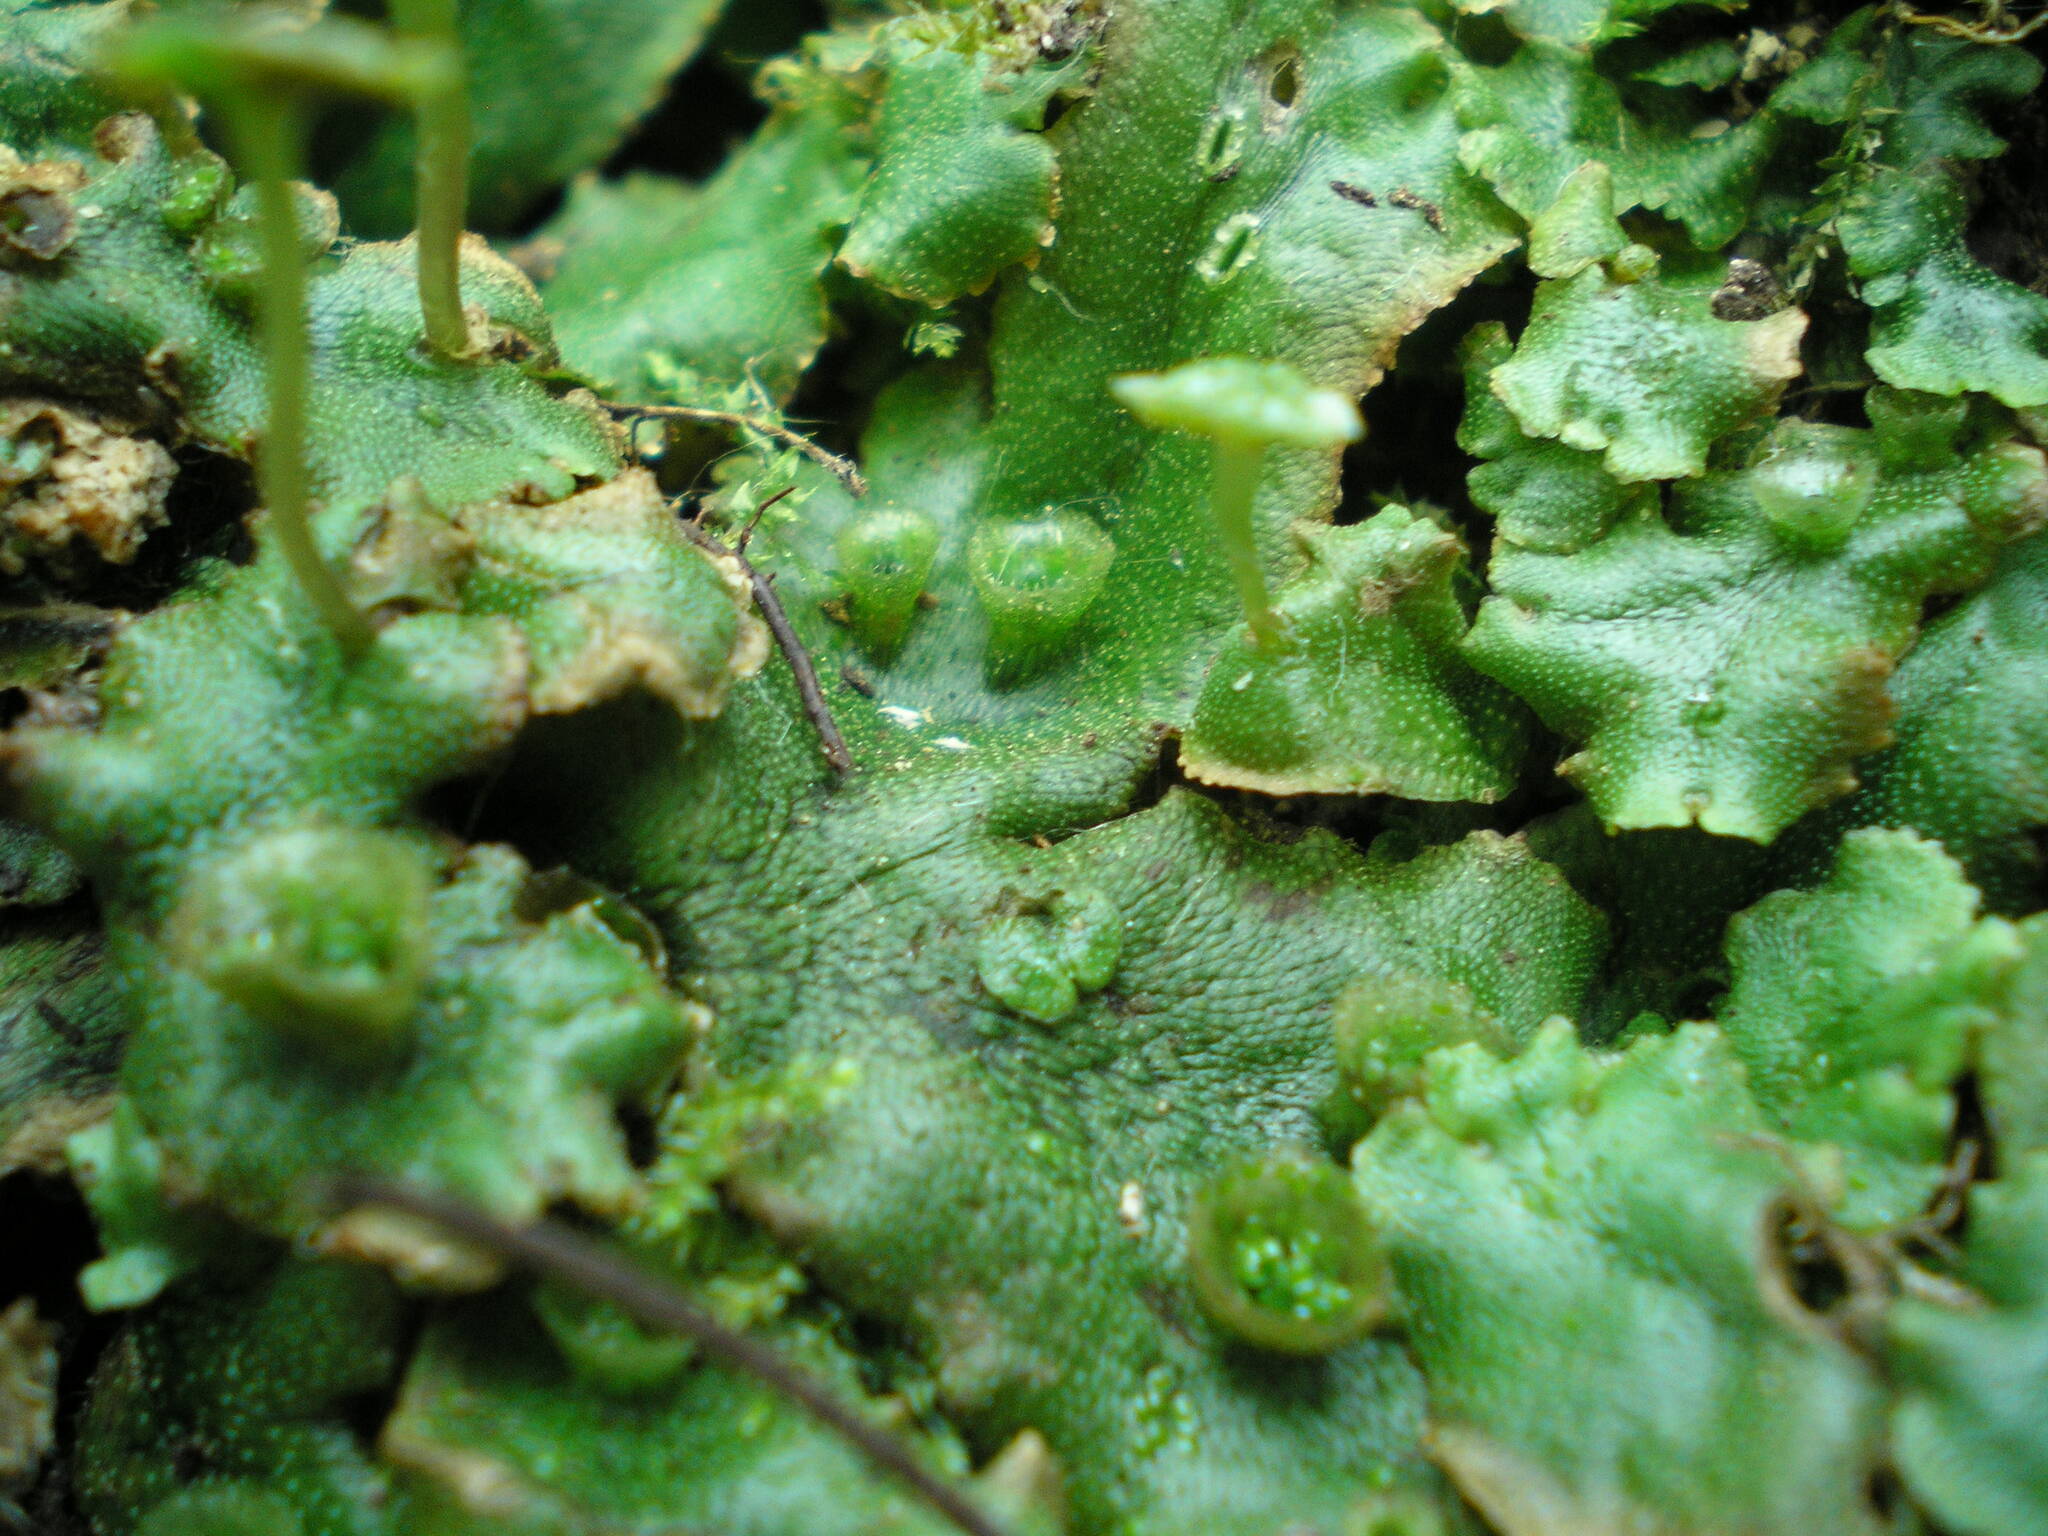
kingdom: Plantae
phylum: Marchantiophyta
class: Marchantiopsida
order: Marchantiales
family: Marchantiaceae
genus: Marchantia
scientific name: Marchantia polymorpha
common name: Common liverwort
